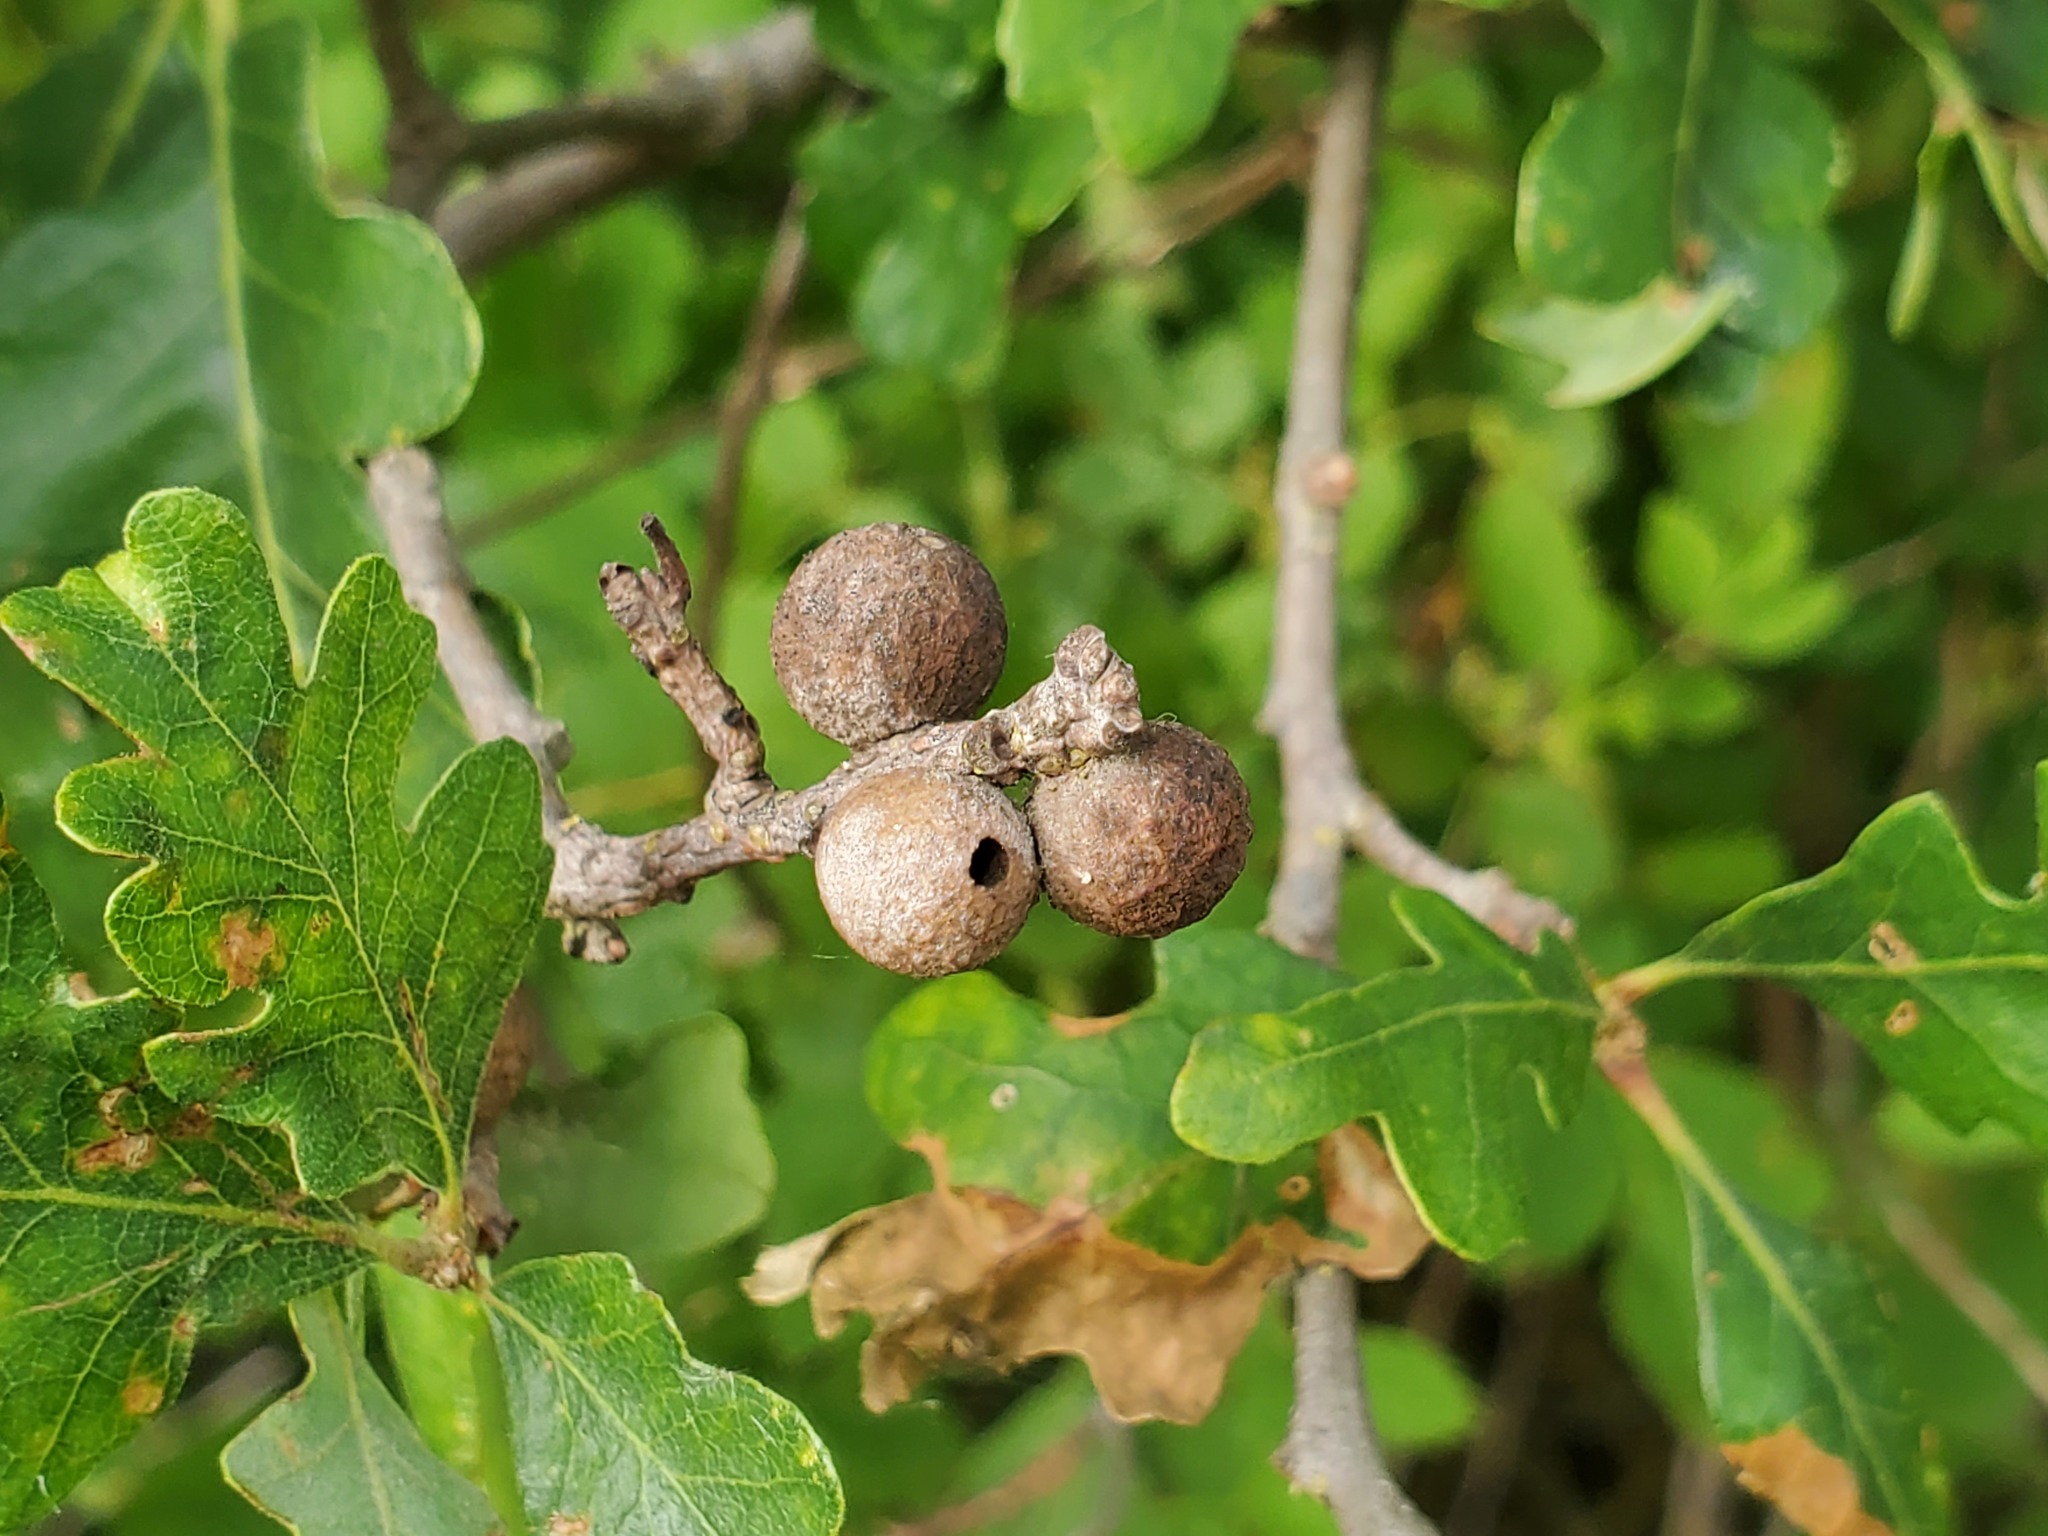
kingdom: Animalia
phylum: Arthropoda
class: Insecta
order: Hymenoptera
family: Cynipidae
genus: Burnettweldia
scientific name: Burnettweldia
